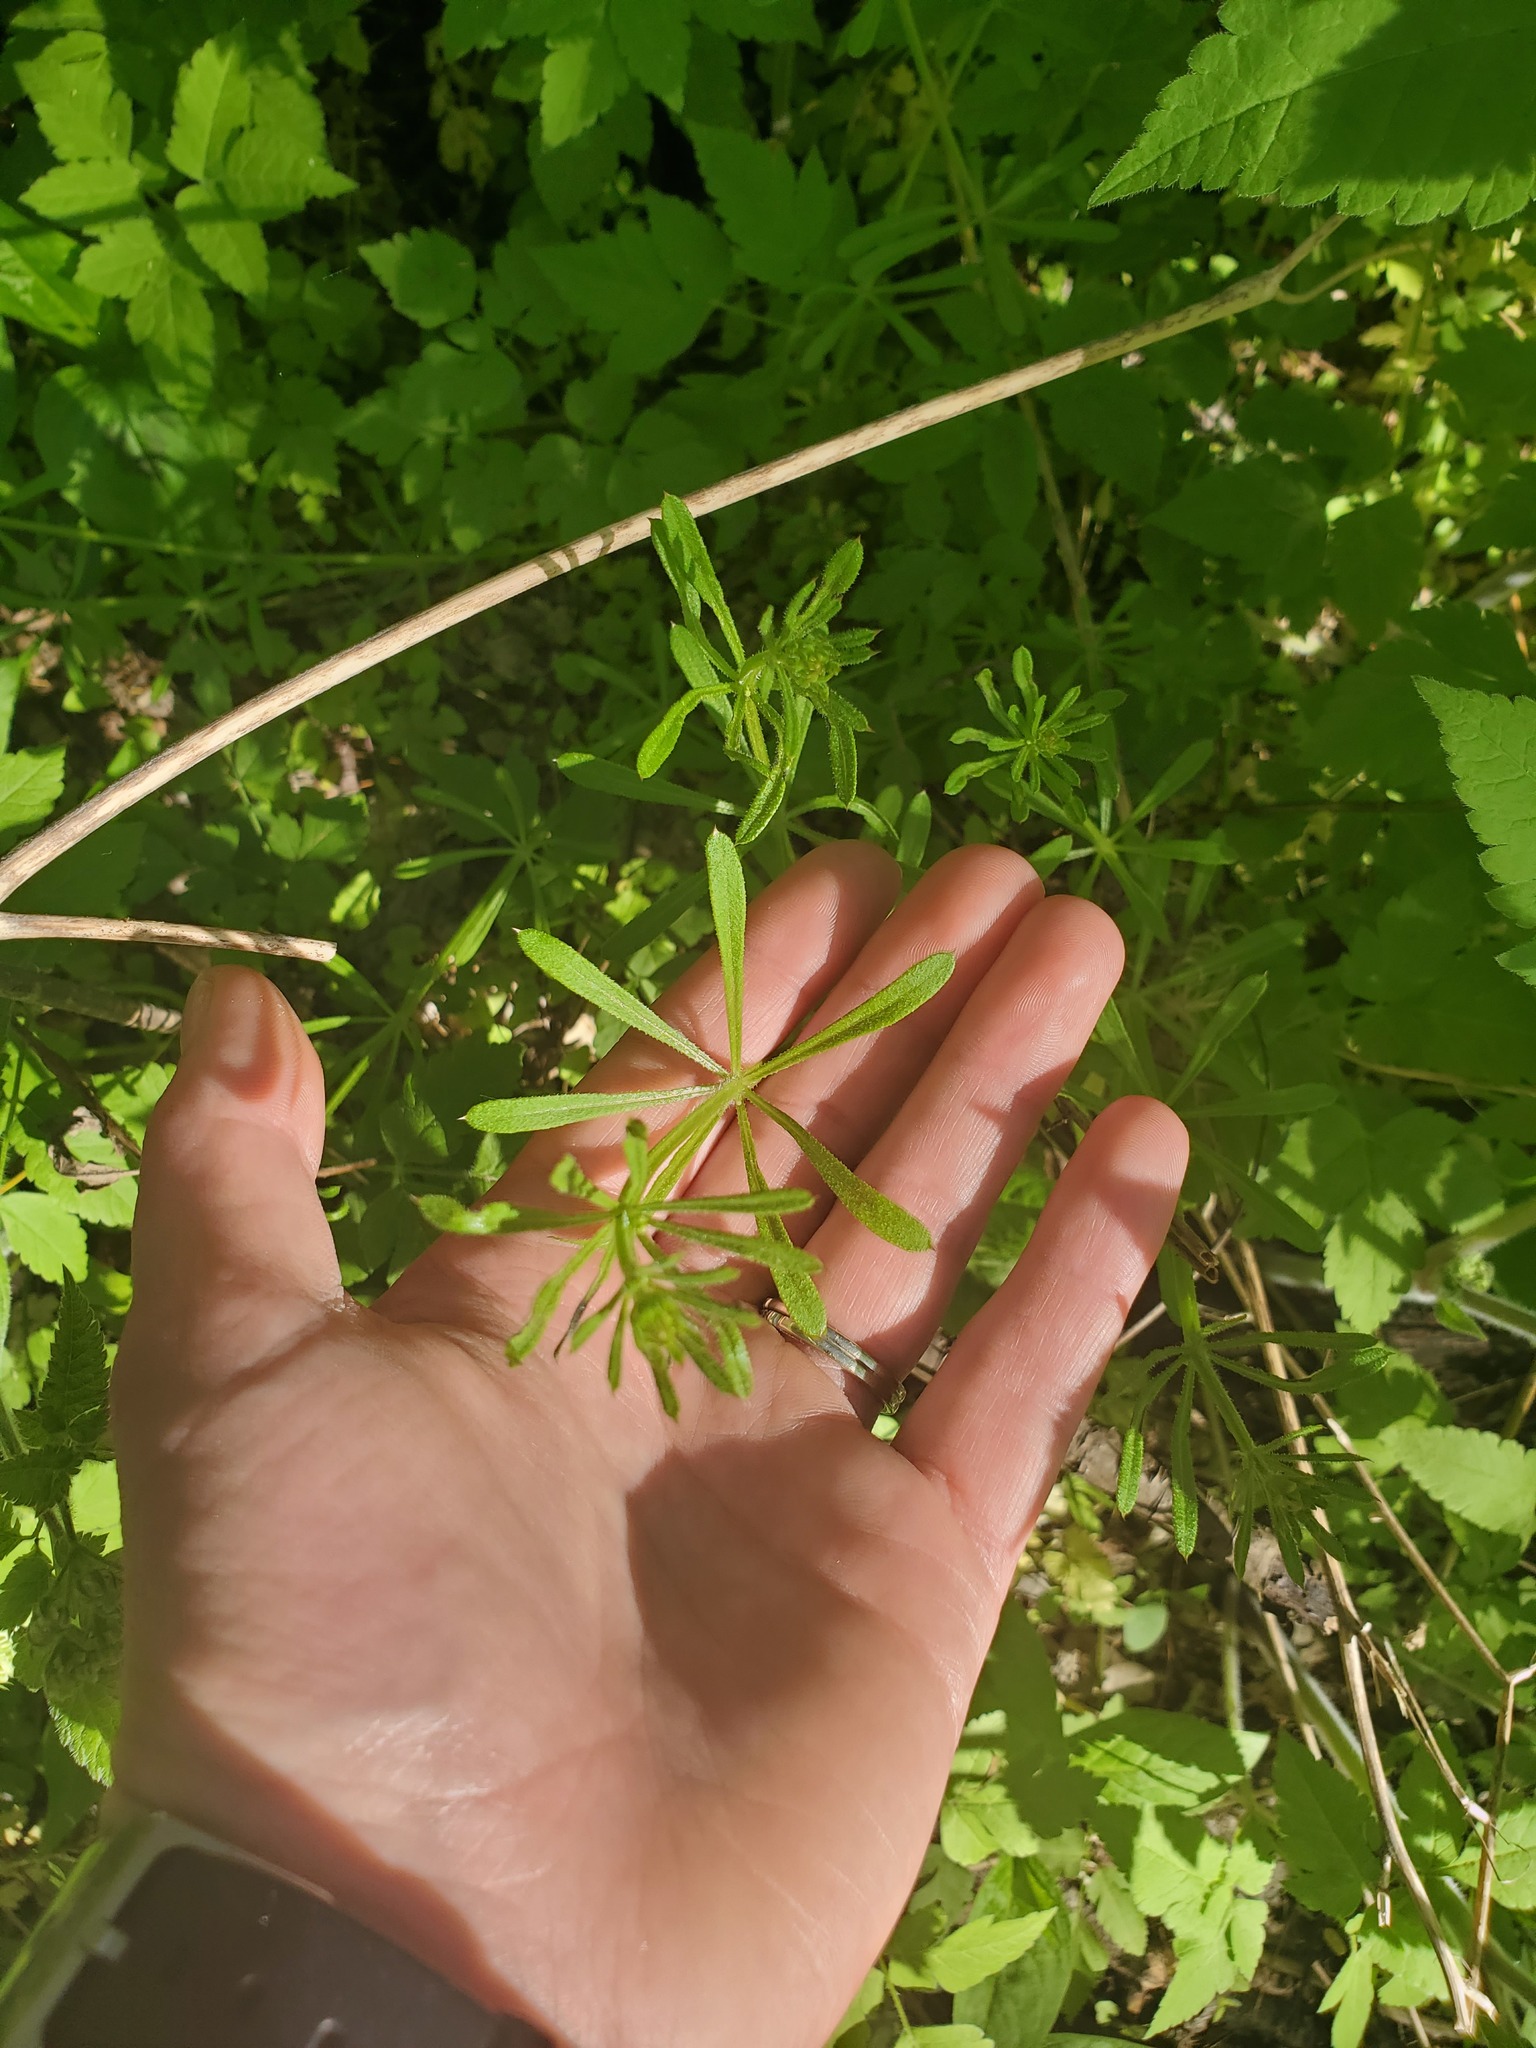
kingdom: Plantae
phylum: Tracheophyta
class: Magnoliopsida
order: Gentianales
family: Rubiaceae
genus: Galium
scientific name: Galium aparine
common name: Cleavers
